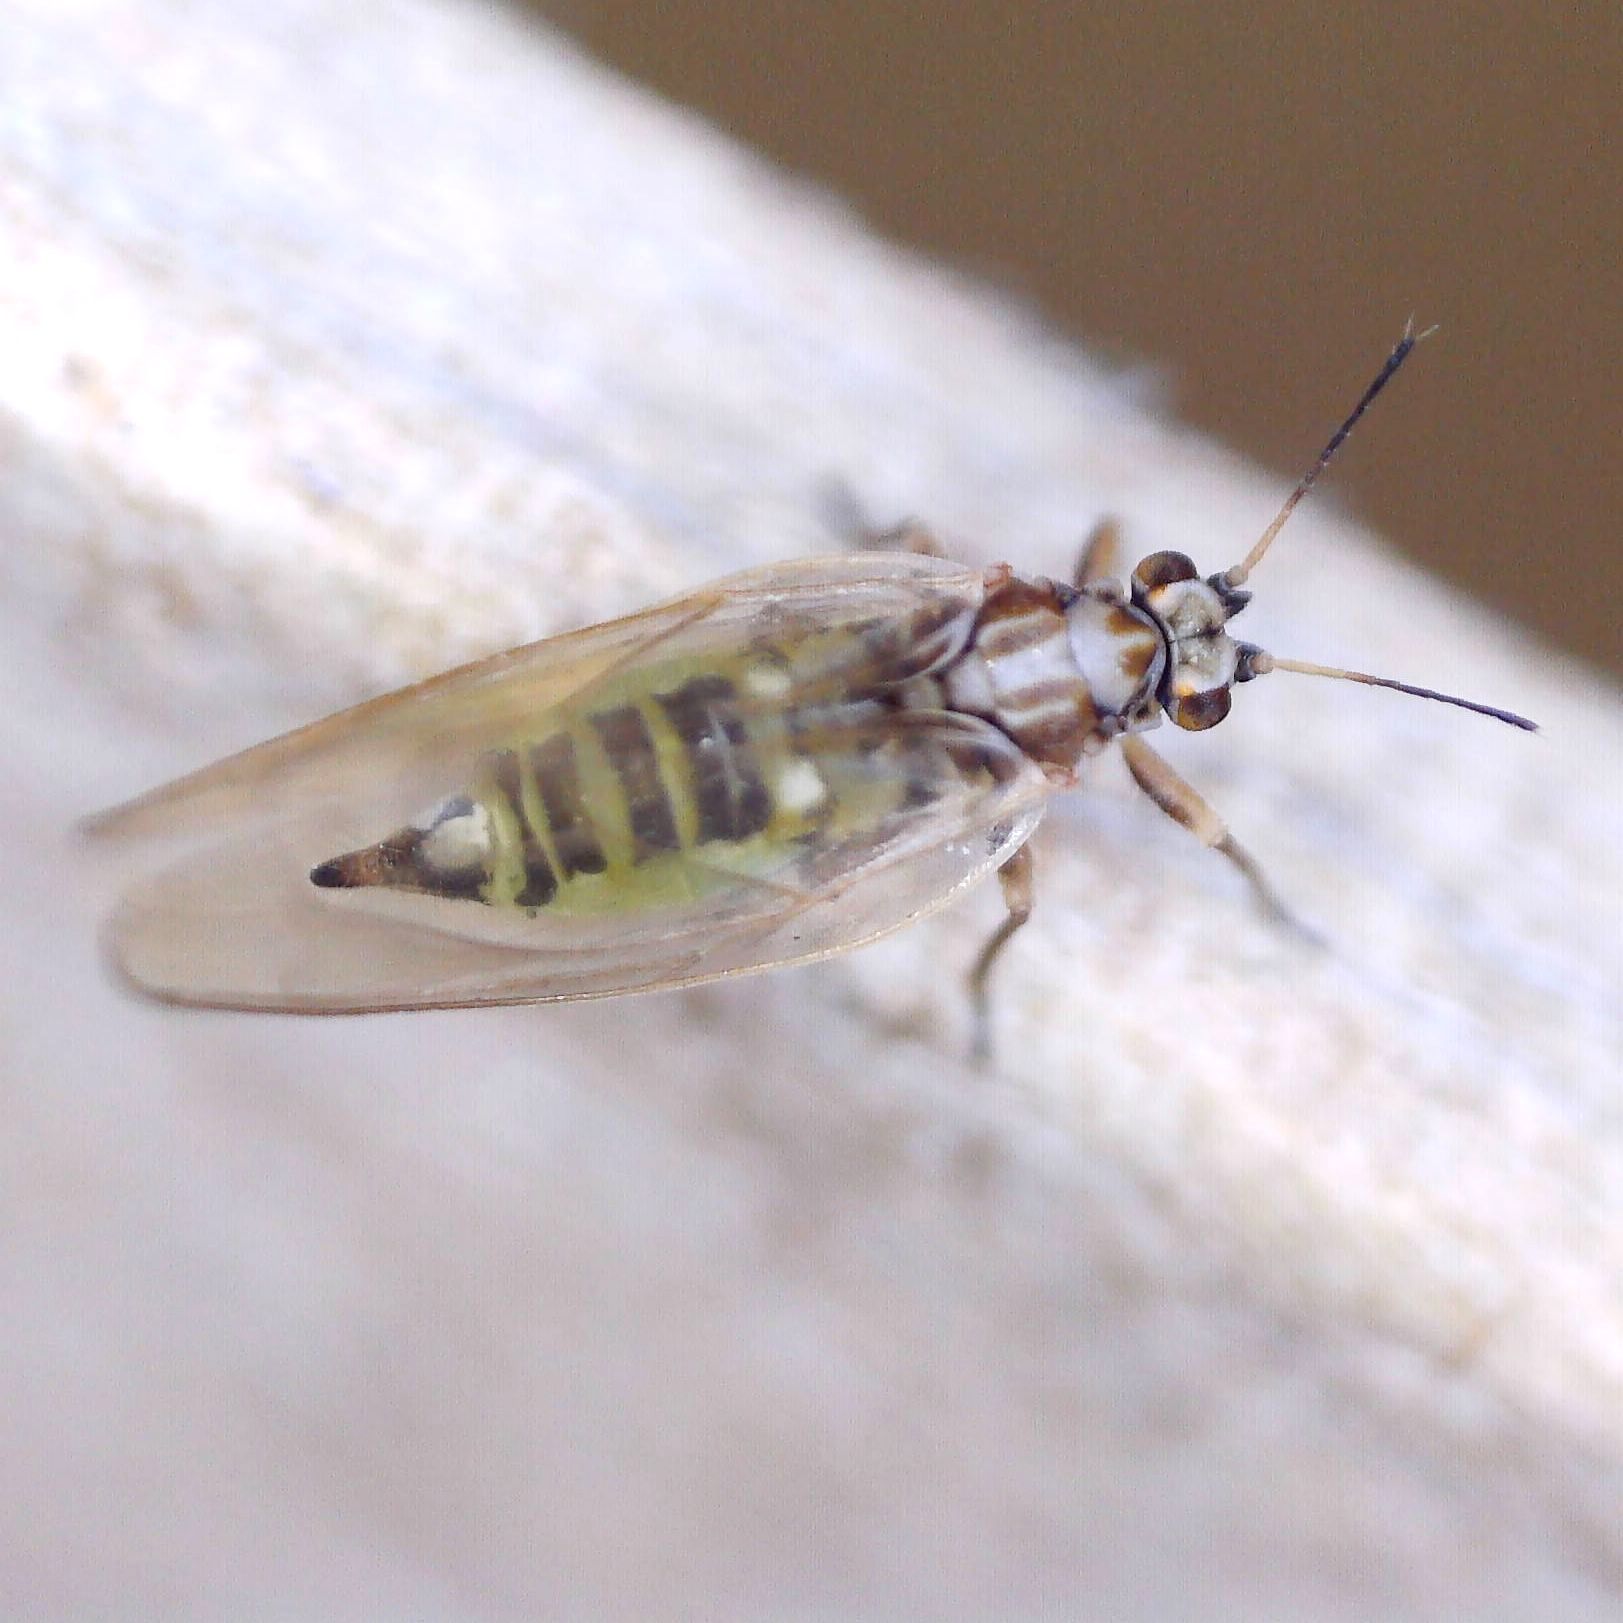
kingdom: Animalia
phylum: Arthropoda
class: Insecta
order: Hemiptera
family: Triozidae
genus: Trioza
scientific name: Trioza urticae
